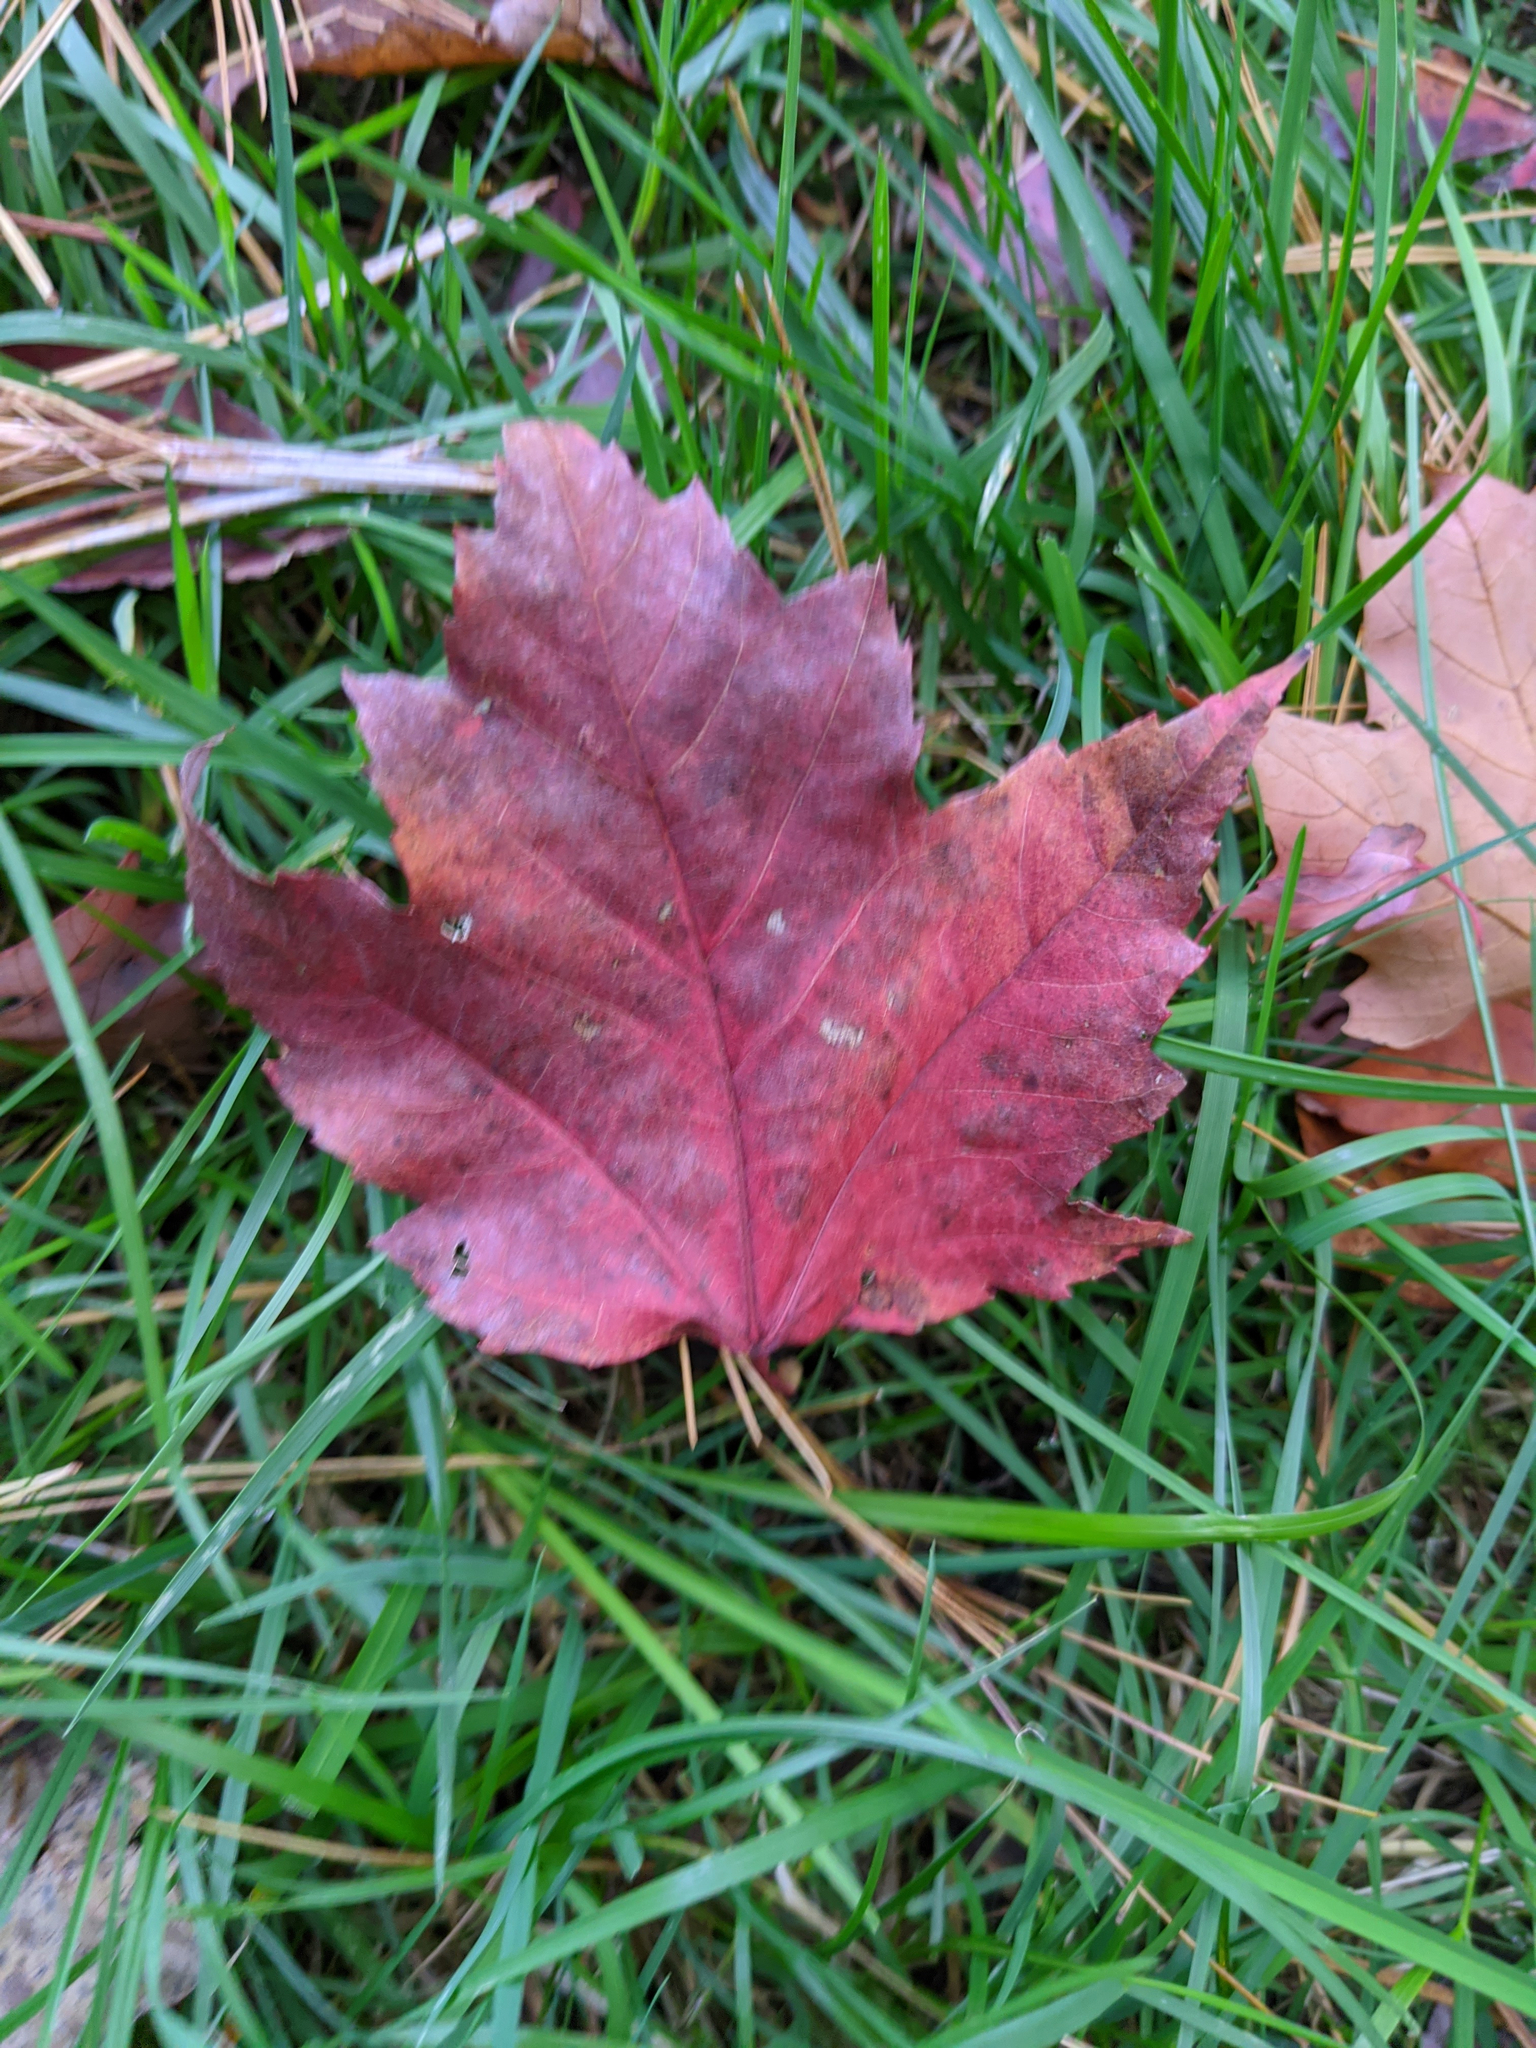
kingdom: Plantae
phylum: Tracheophyta
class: Magnoliopsida
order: Sapindales
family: Sapindaceae
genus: Acer
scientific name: Acer rubrum
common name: Red maple
